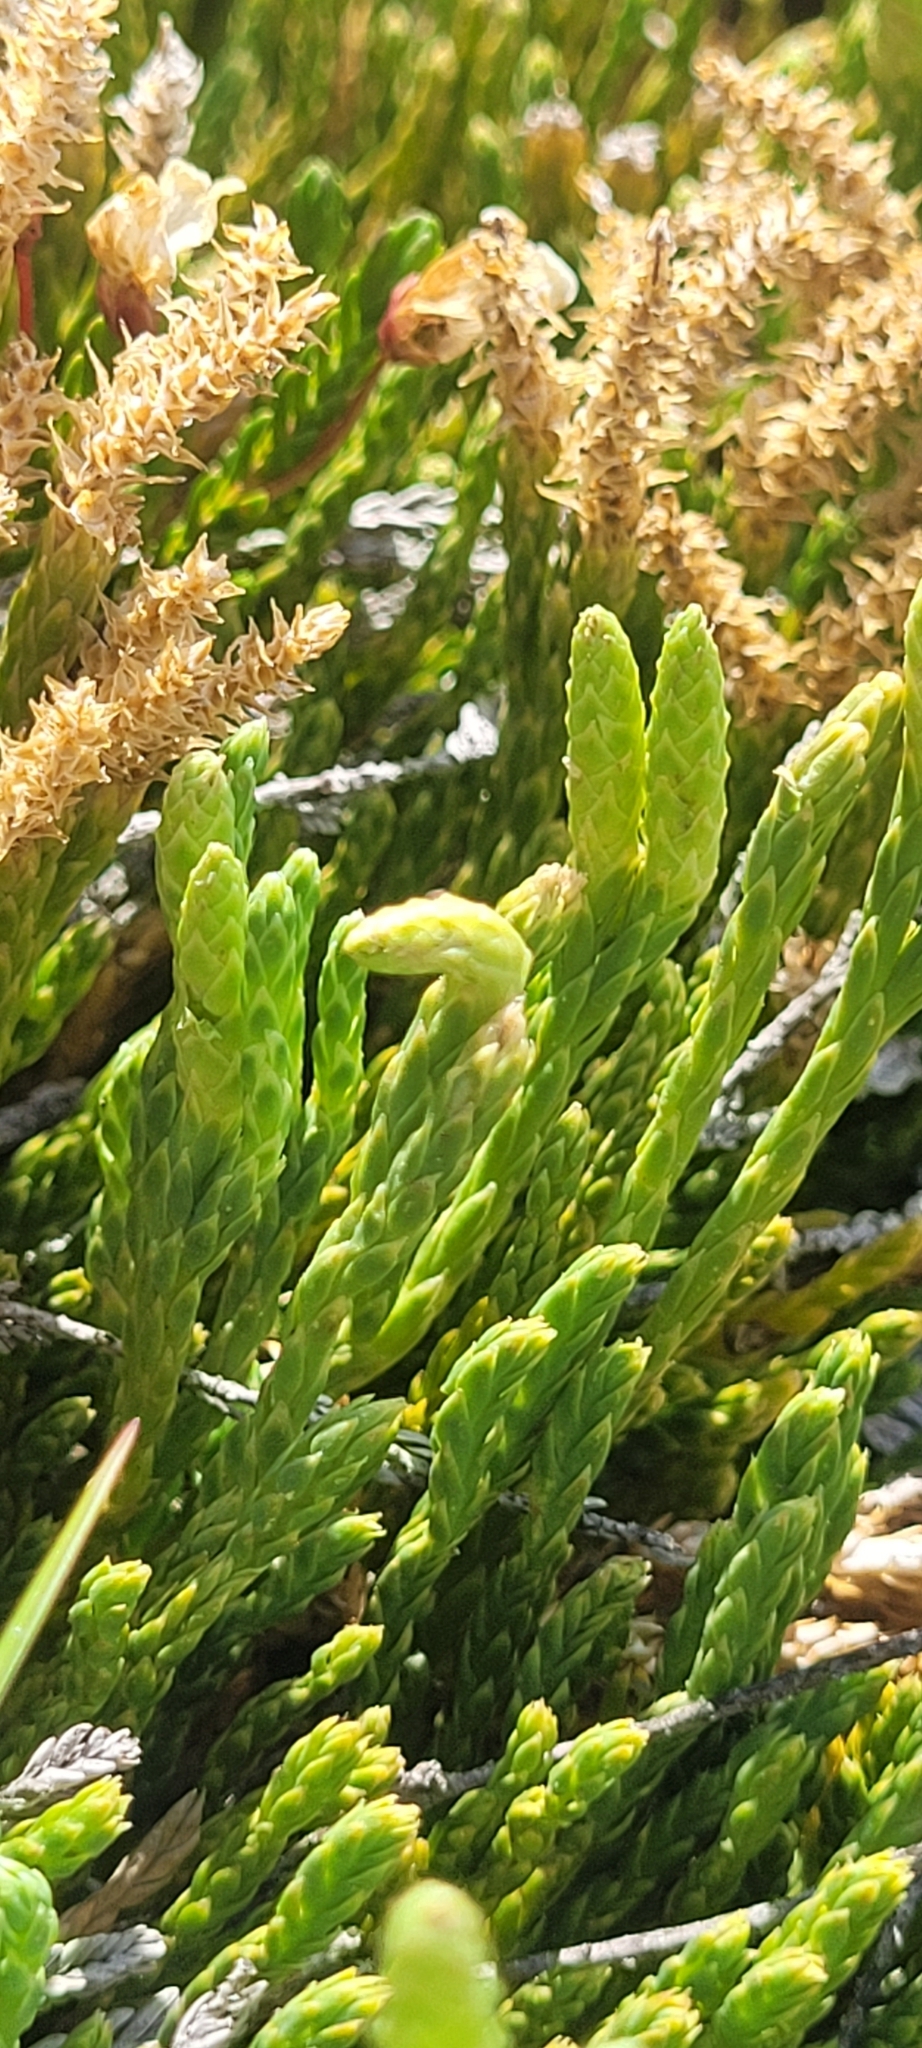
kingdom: Plantae
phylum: Tracheophyta
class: Lycopodiopsida
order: Lycopodiales
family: Lycopodiaceae
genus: Diphasiastrum
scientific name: Diphasiastrum alpinum
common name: Alpine clubmoss
